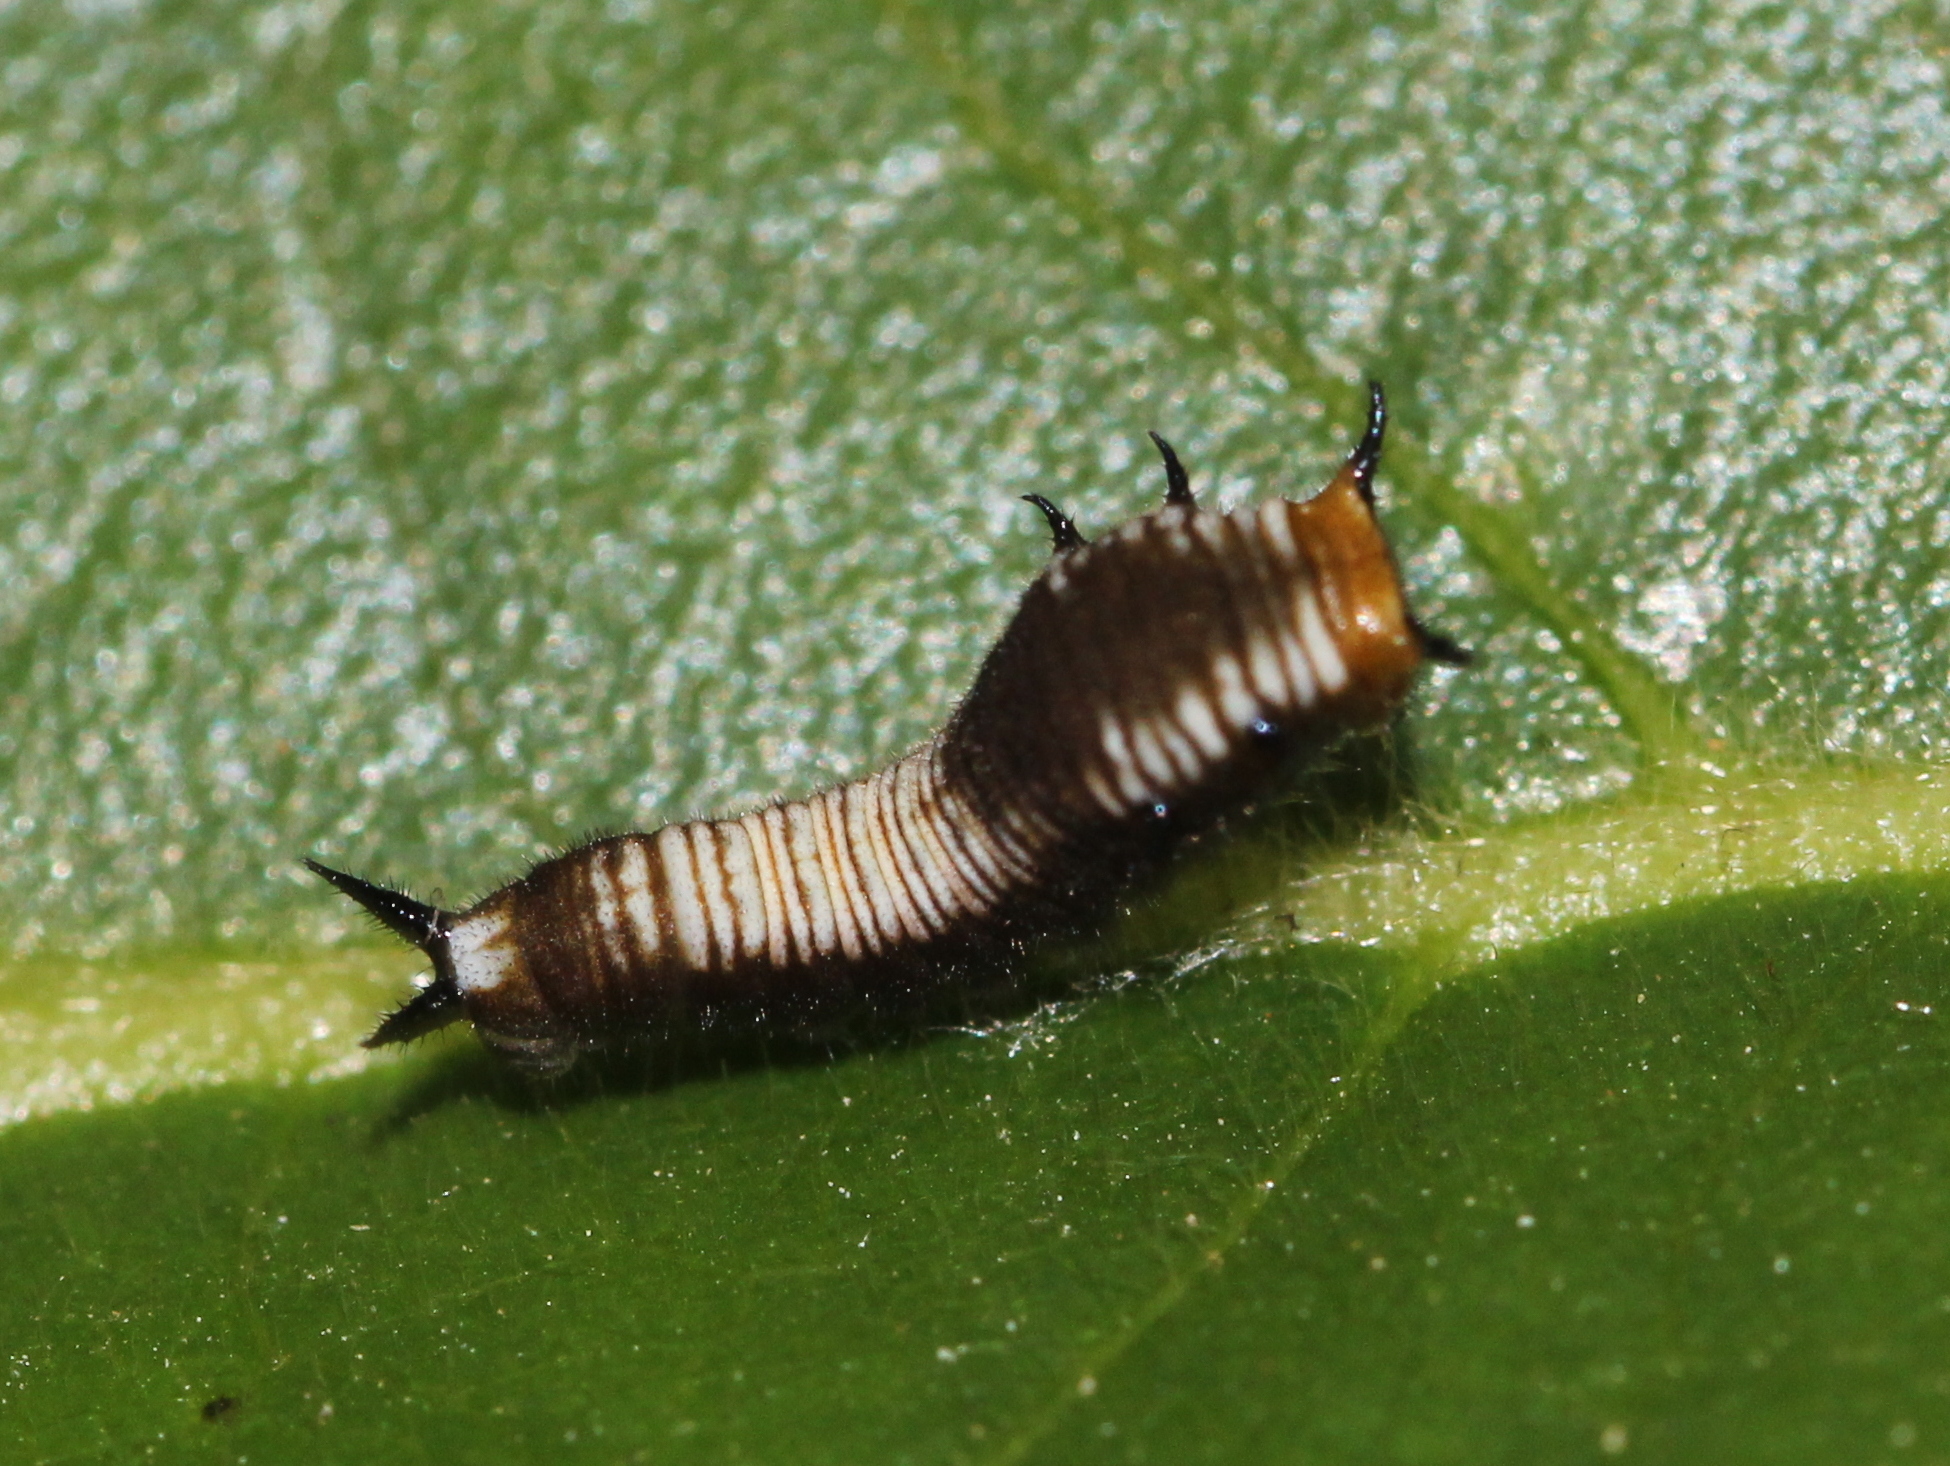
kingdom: Animalia
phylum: Arthropoda
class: Insecta
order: Lepidoptera
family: Papilionidae
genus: Graphium
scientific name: Graphium nomius
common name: Spot swordtail
